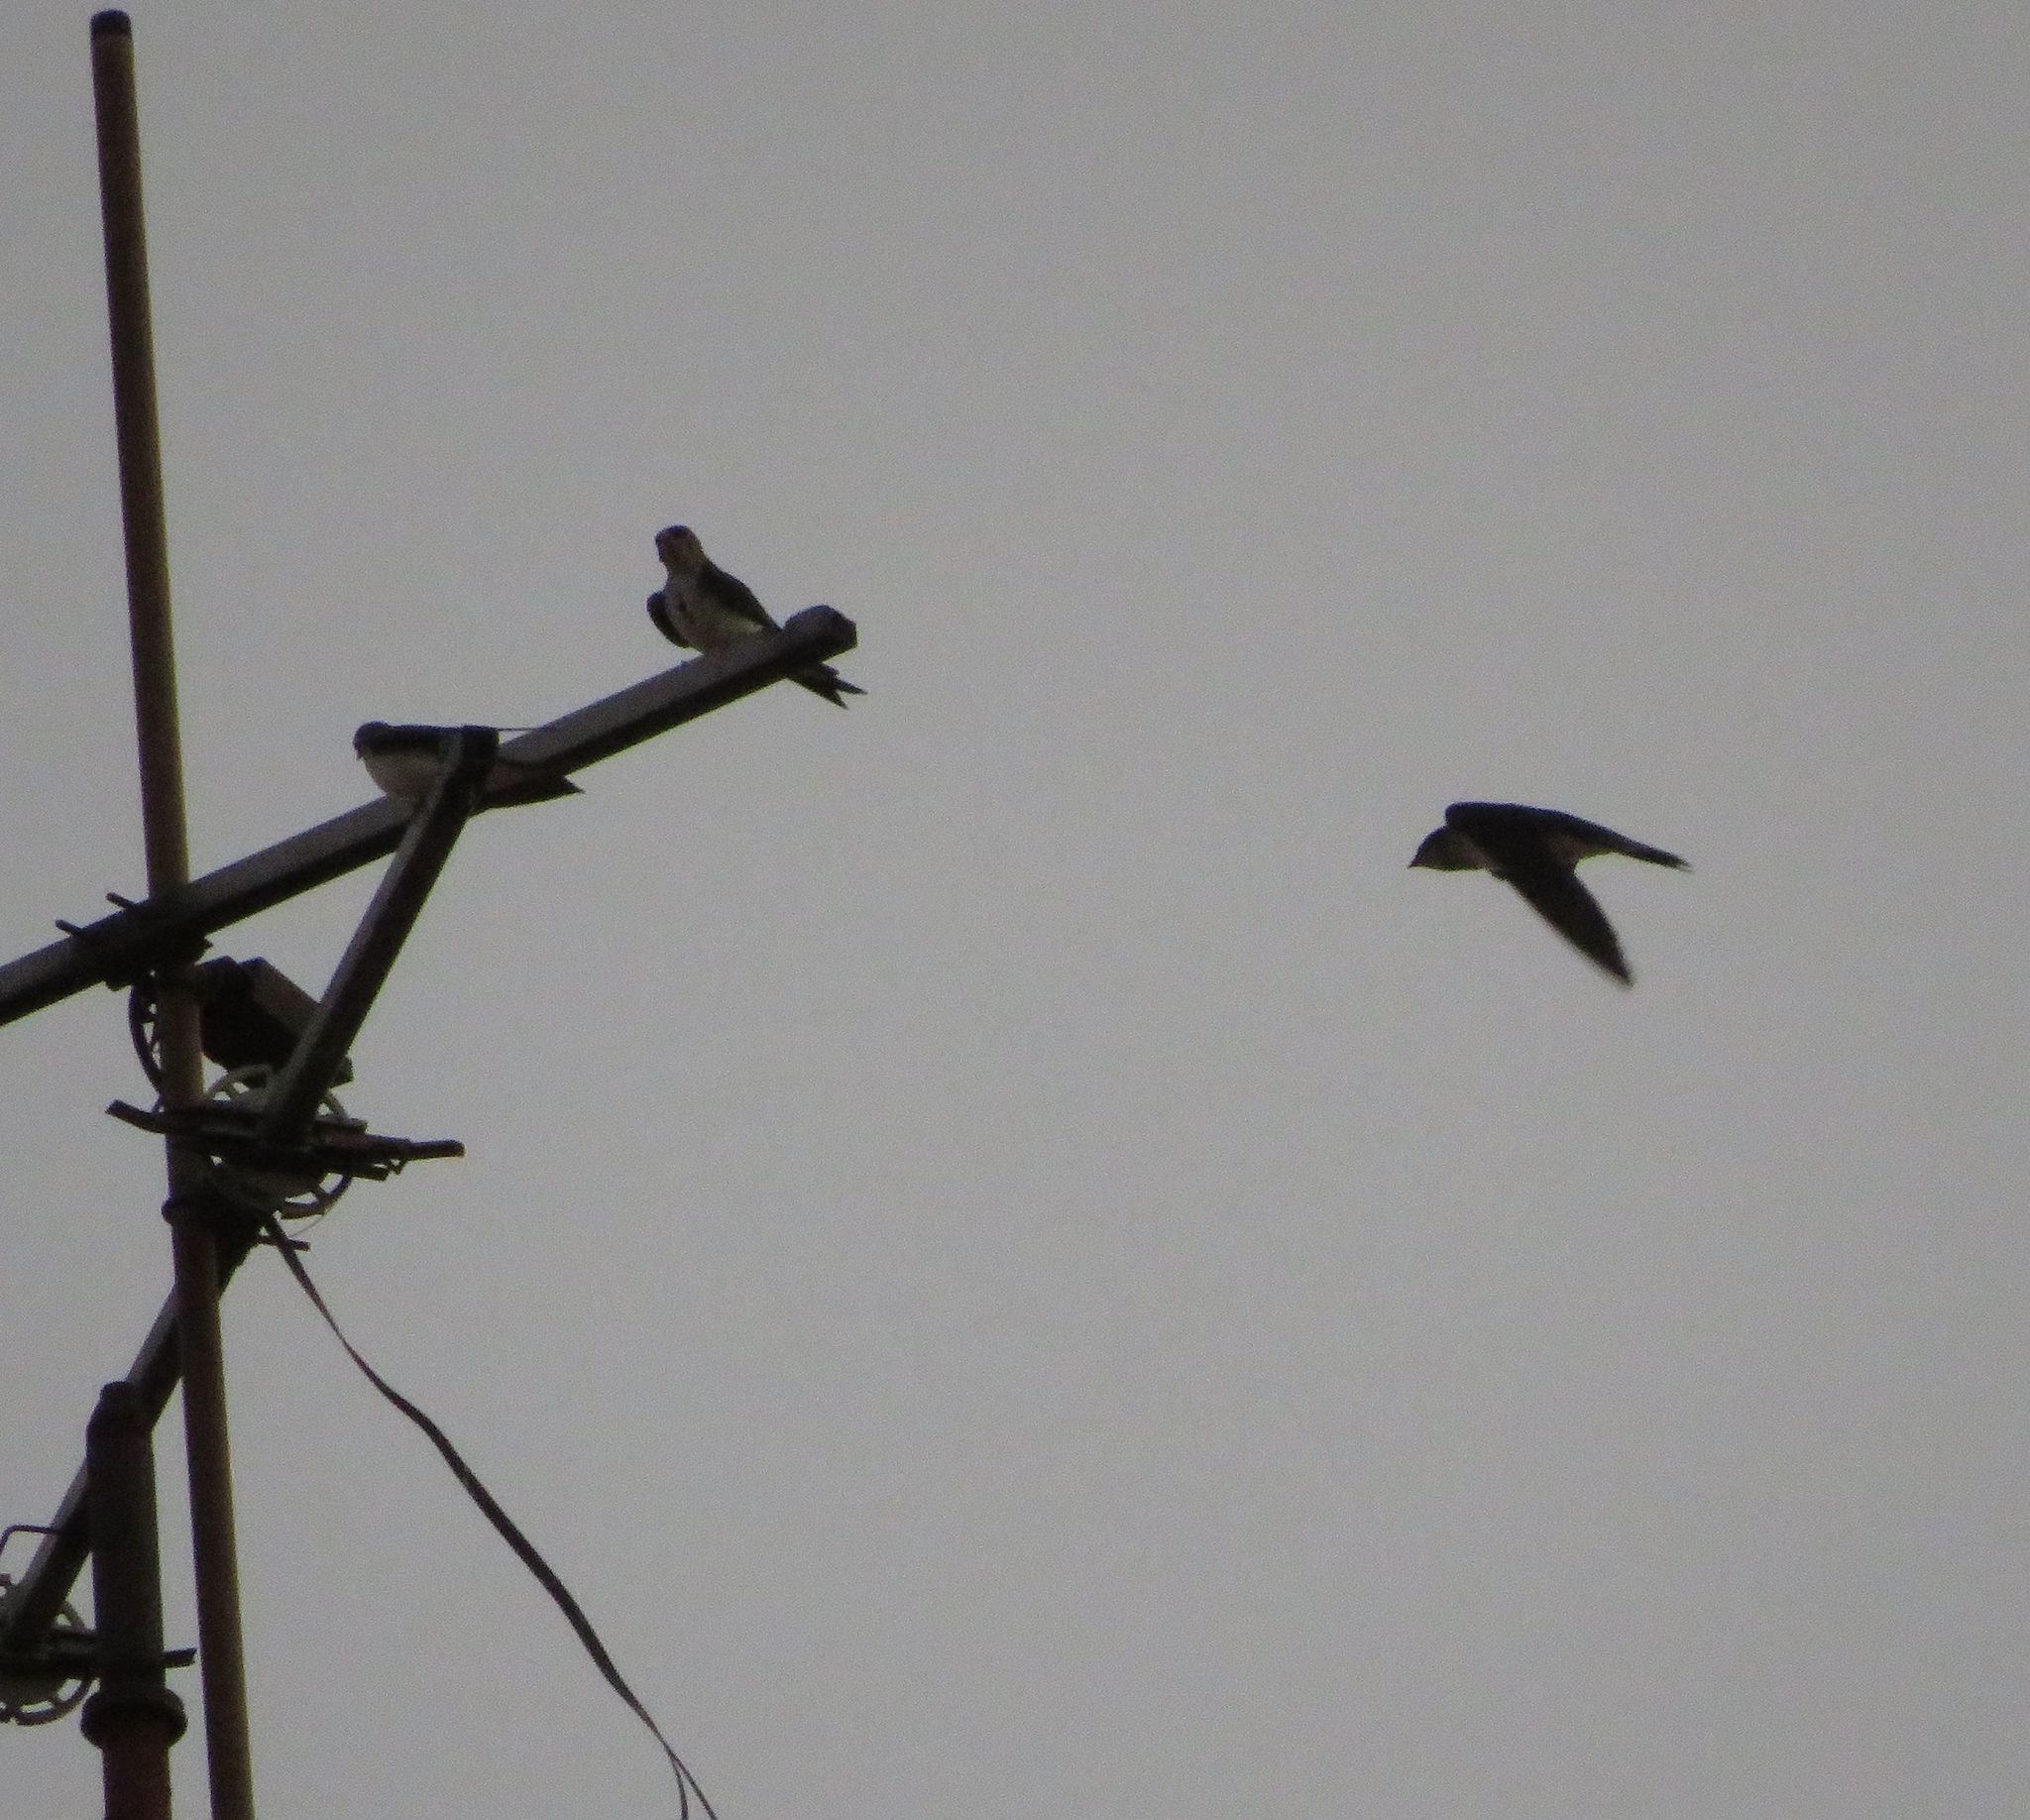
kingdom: Animalia
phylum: Chordata
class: Aves
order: Passeriformes
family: Hirundinidae
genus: Progne
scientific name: Progne tapera
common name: Brown-chested martin
